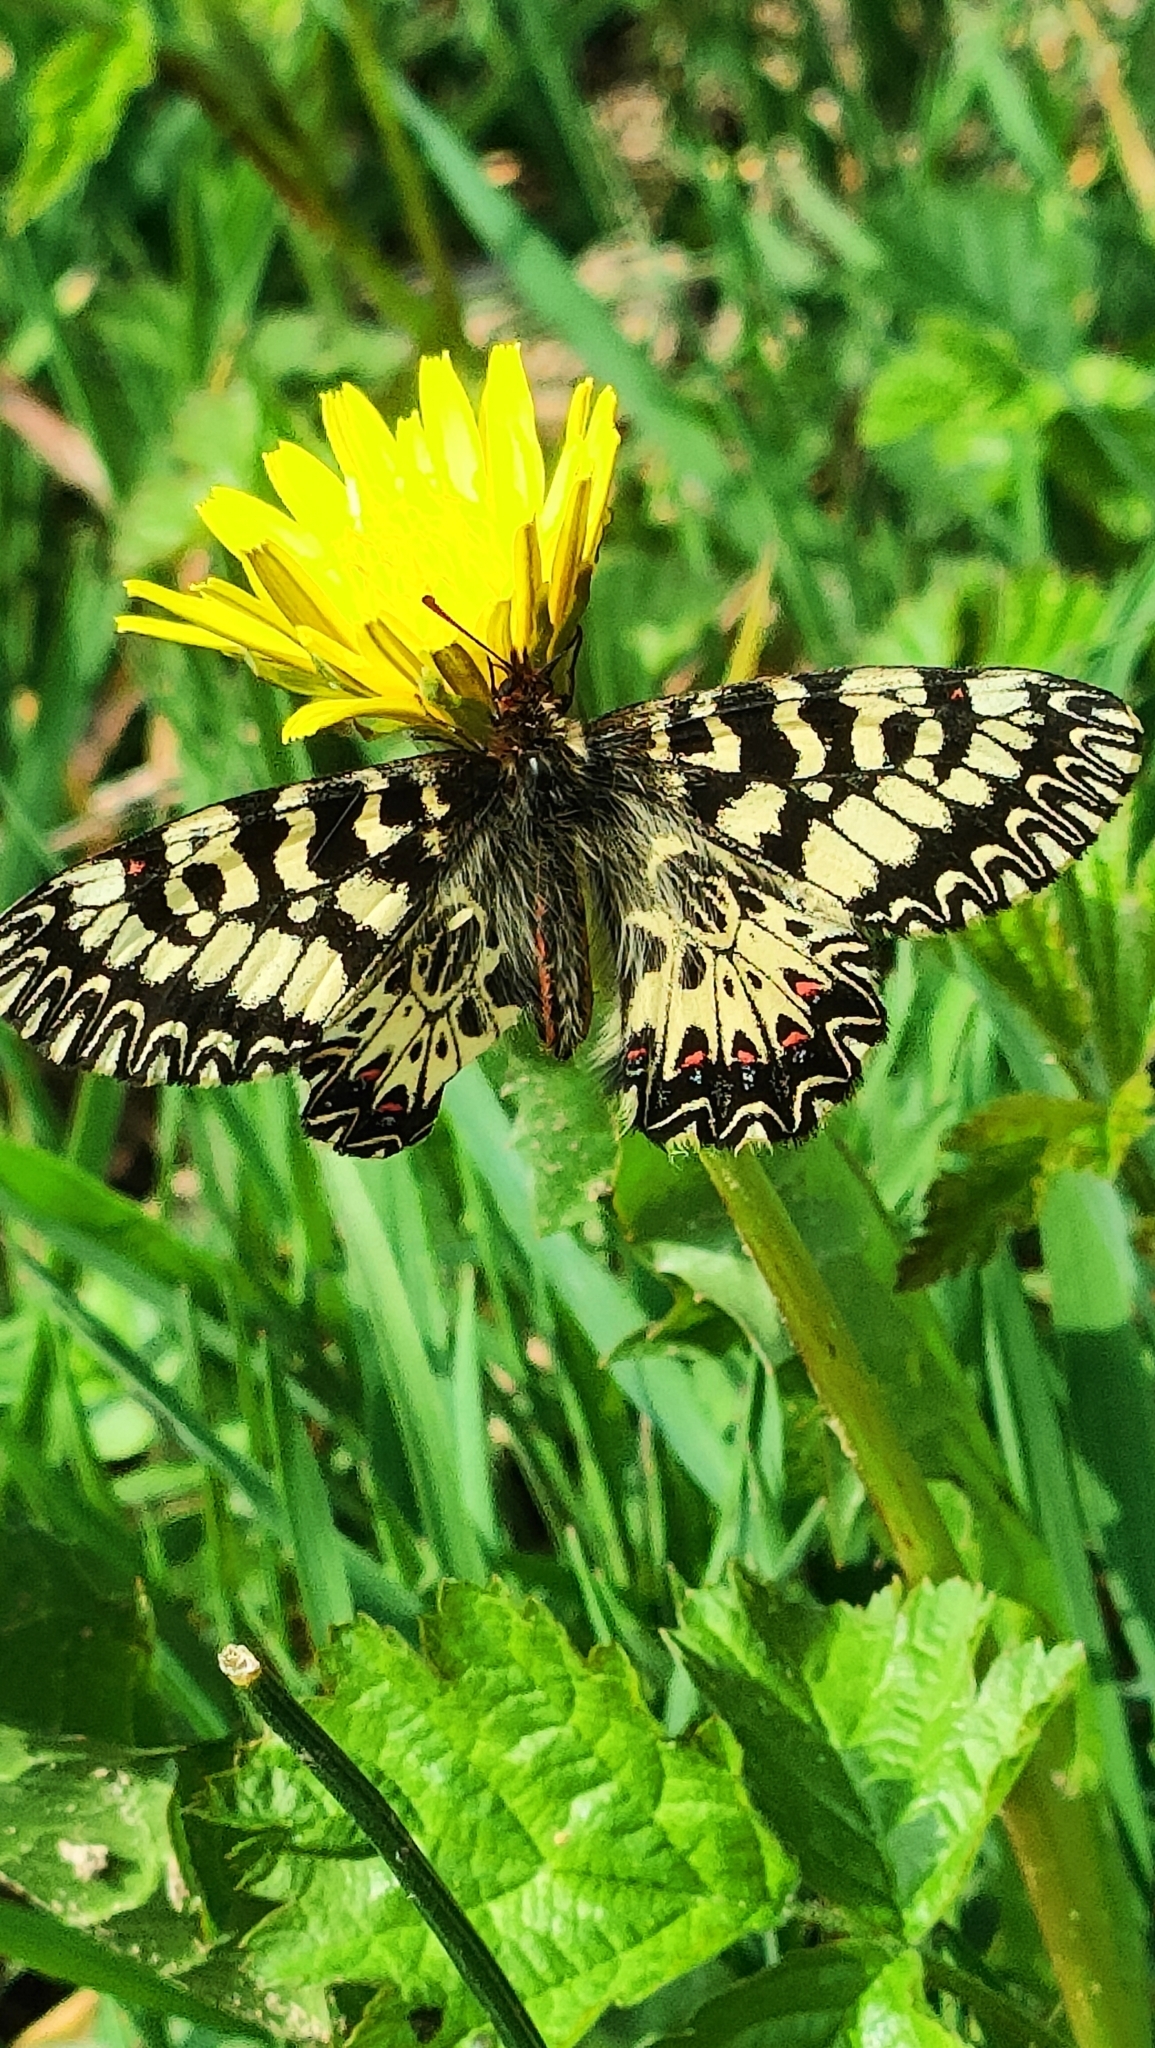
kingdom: Animalia
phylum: Arthropoda
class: Insecta
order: Lepidoptera
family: Papilionidae
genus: Zerynthia
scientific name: Zerynthia polyxena
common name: Southern festoon
